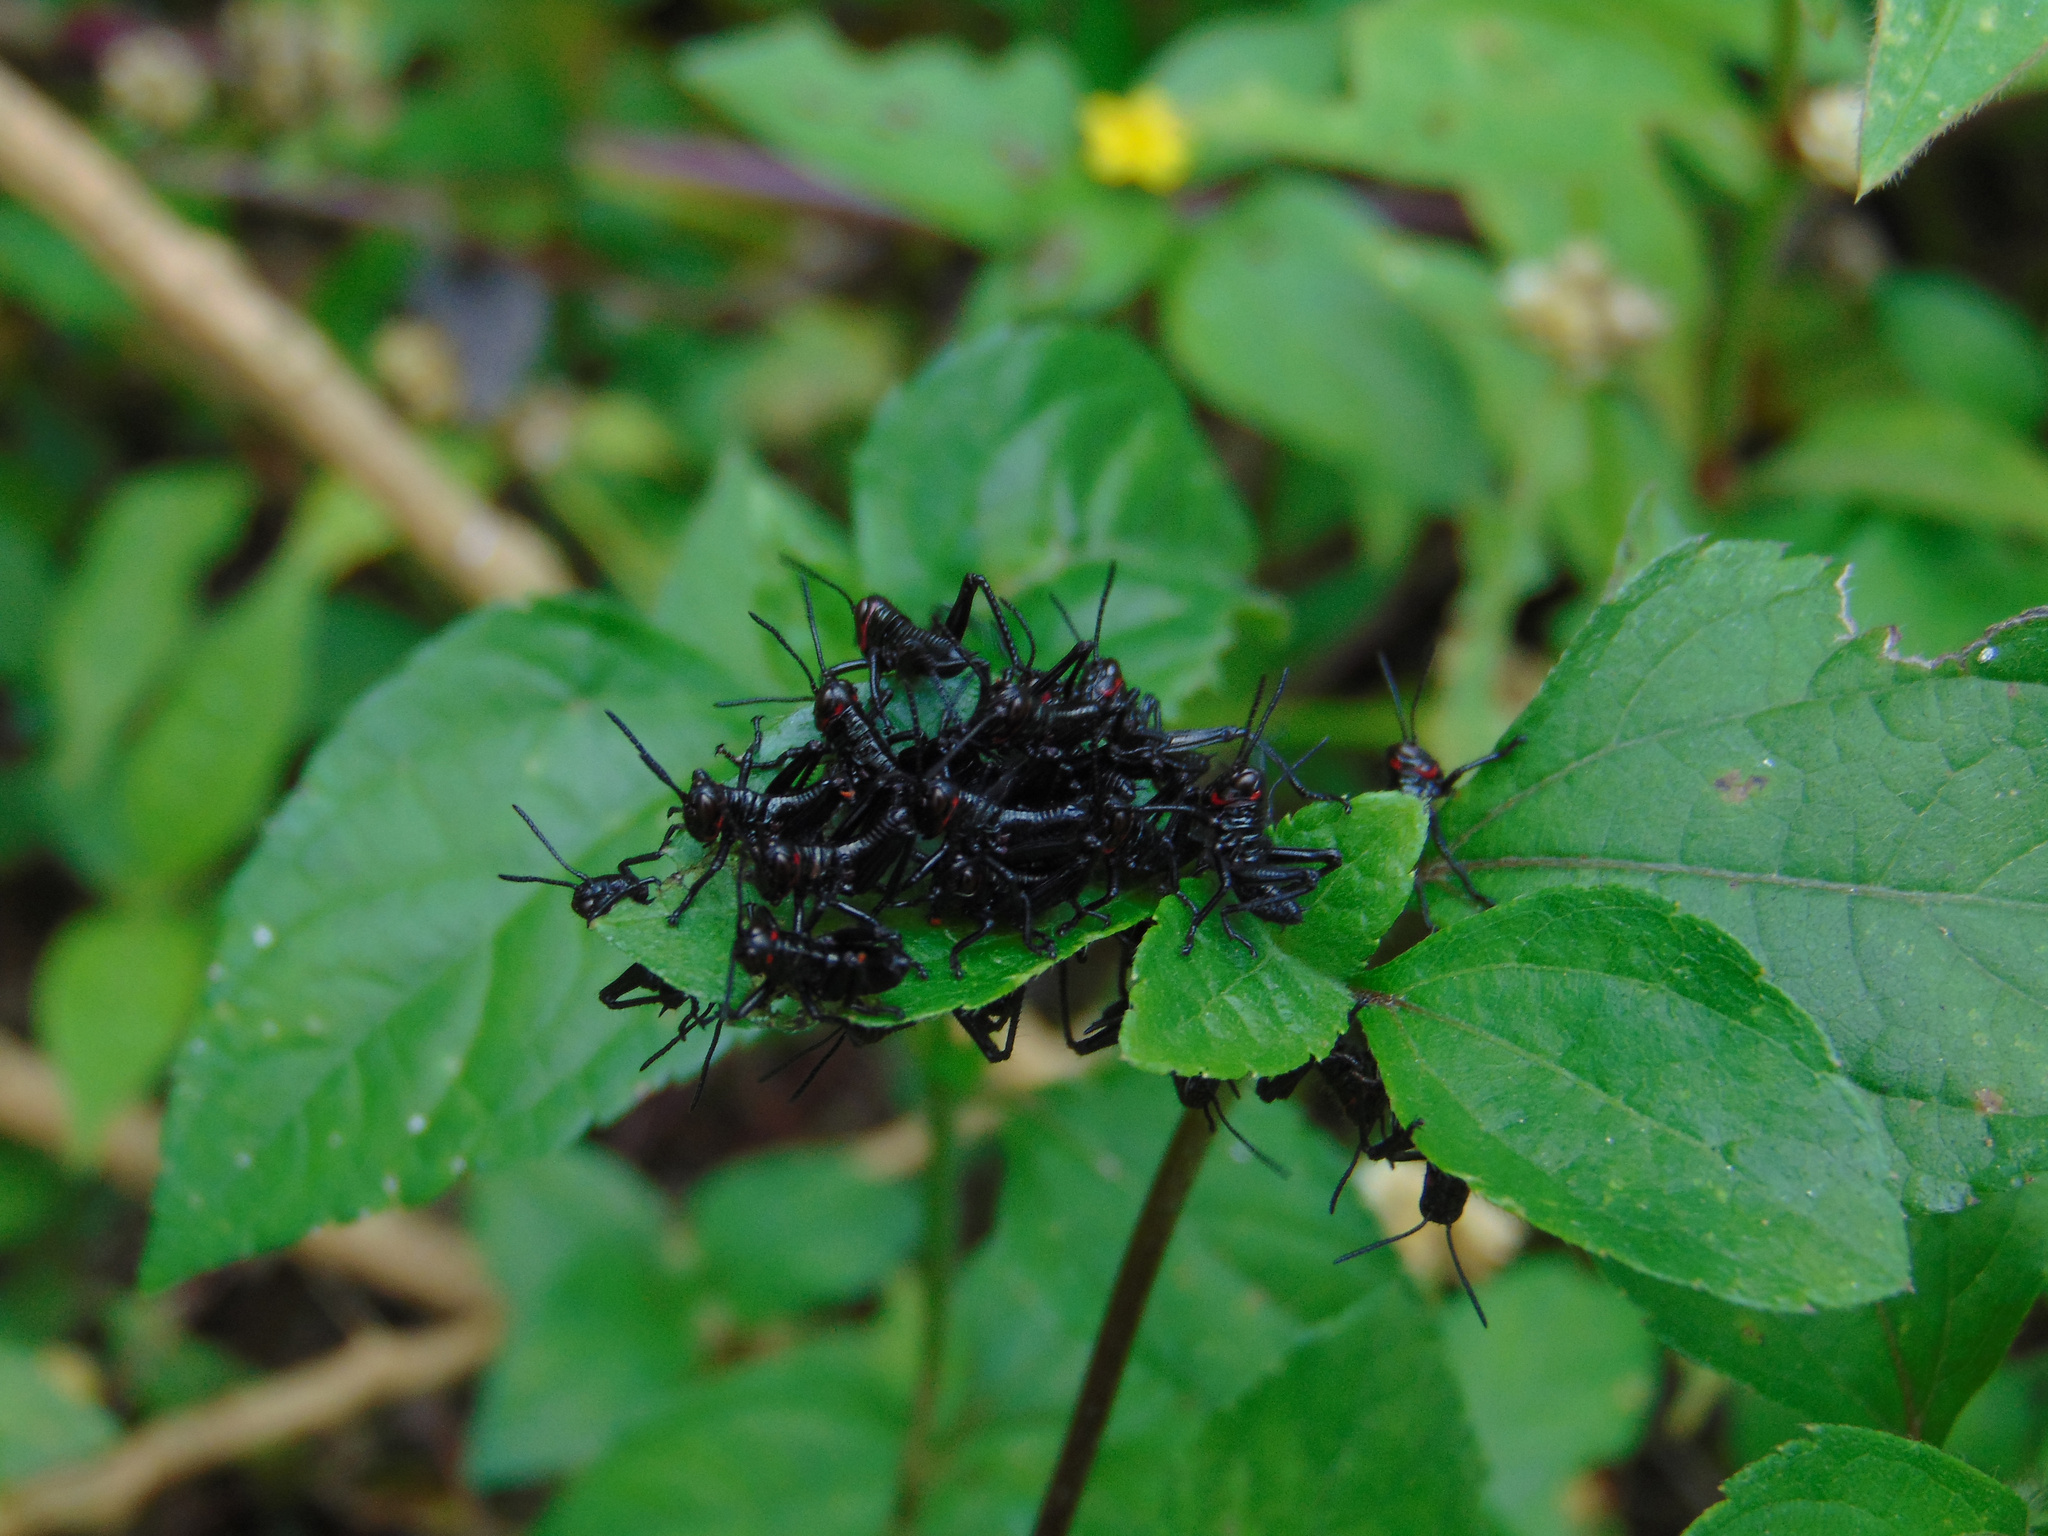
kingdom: Animalia
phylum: Arthropoda
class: Insecta
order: Orthoptera
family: Romaleidae
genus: Chromacris
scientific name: Chromacris speciosa
